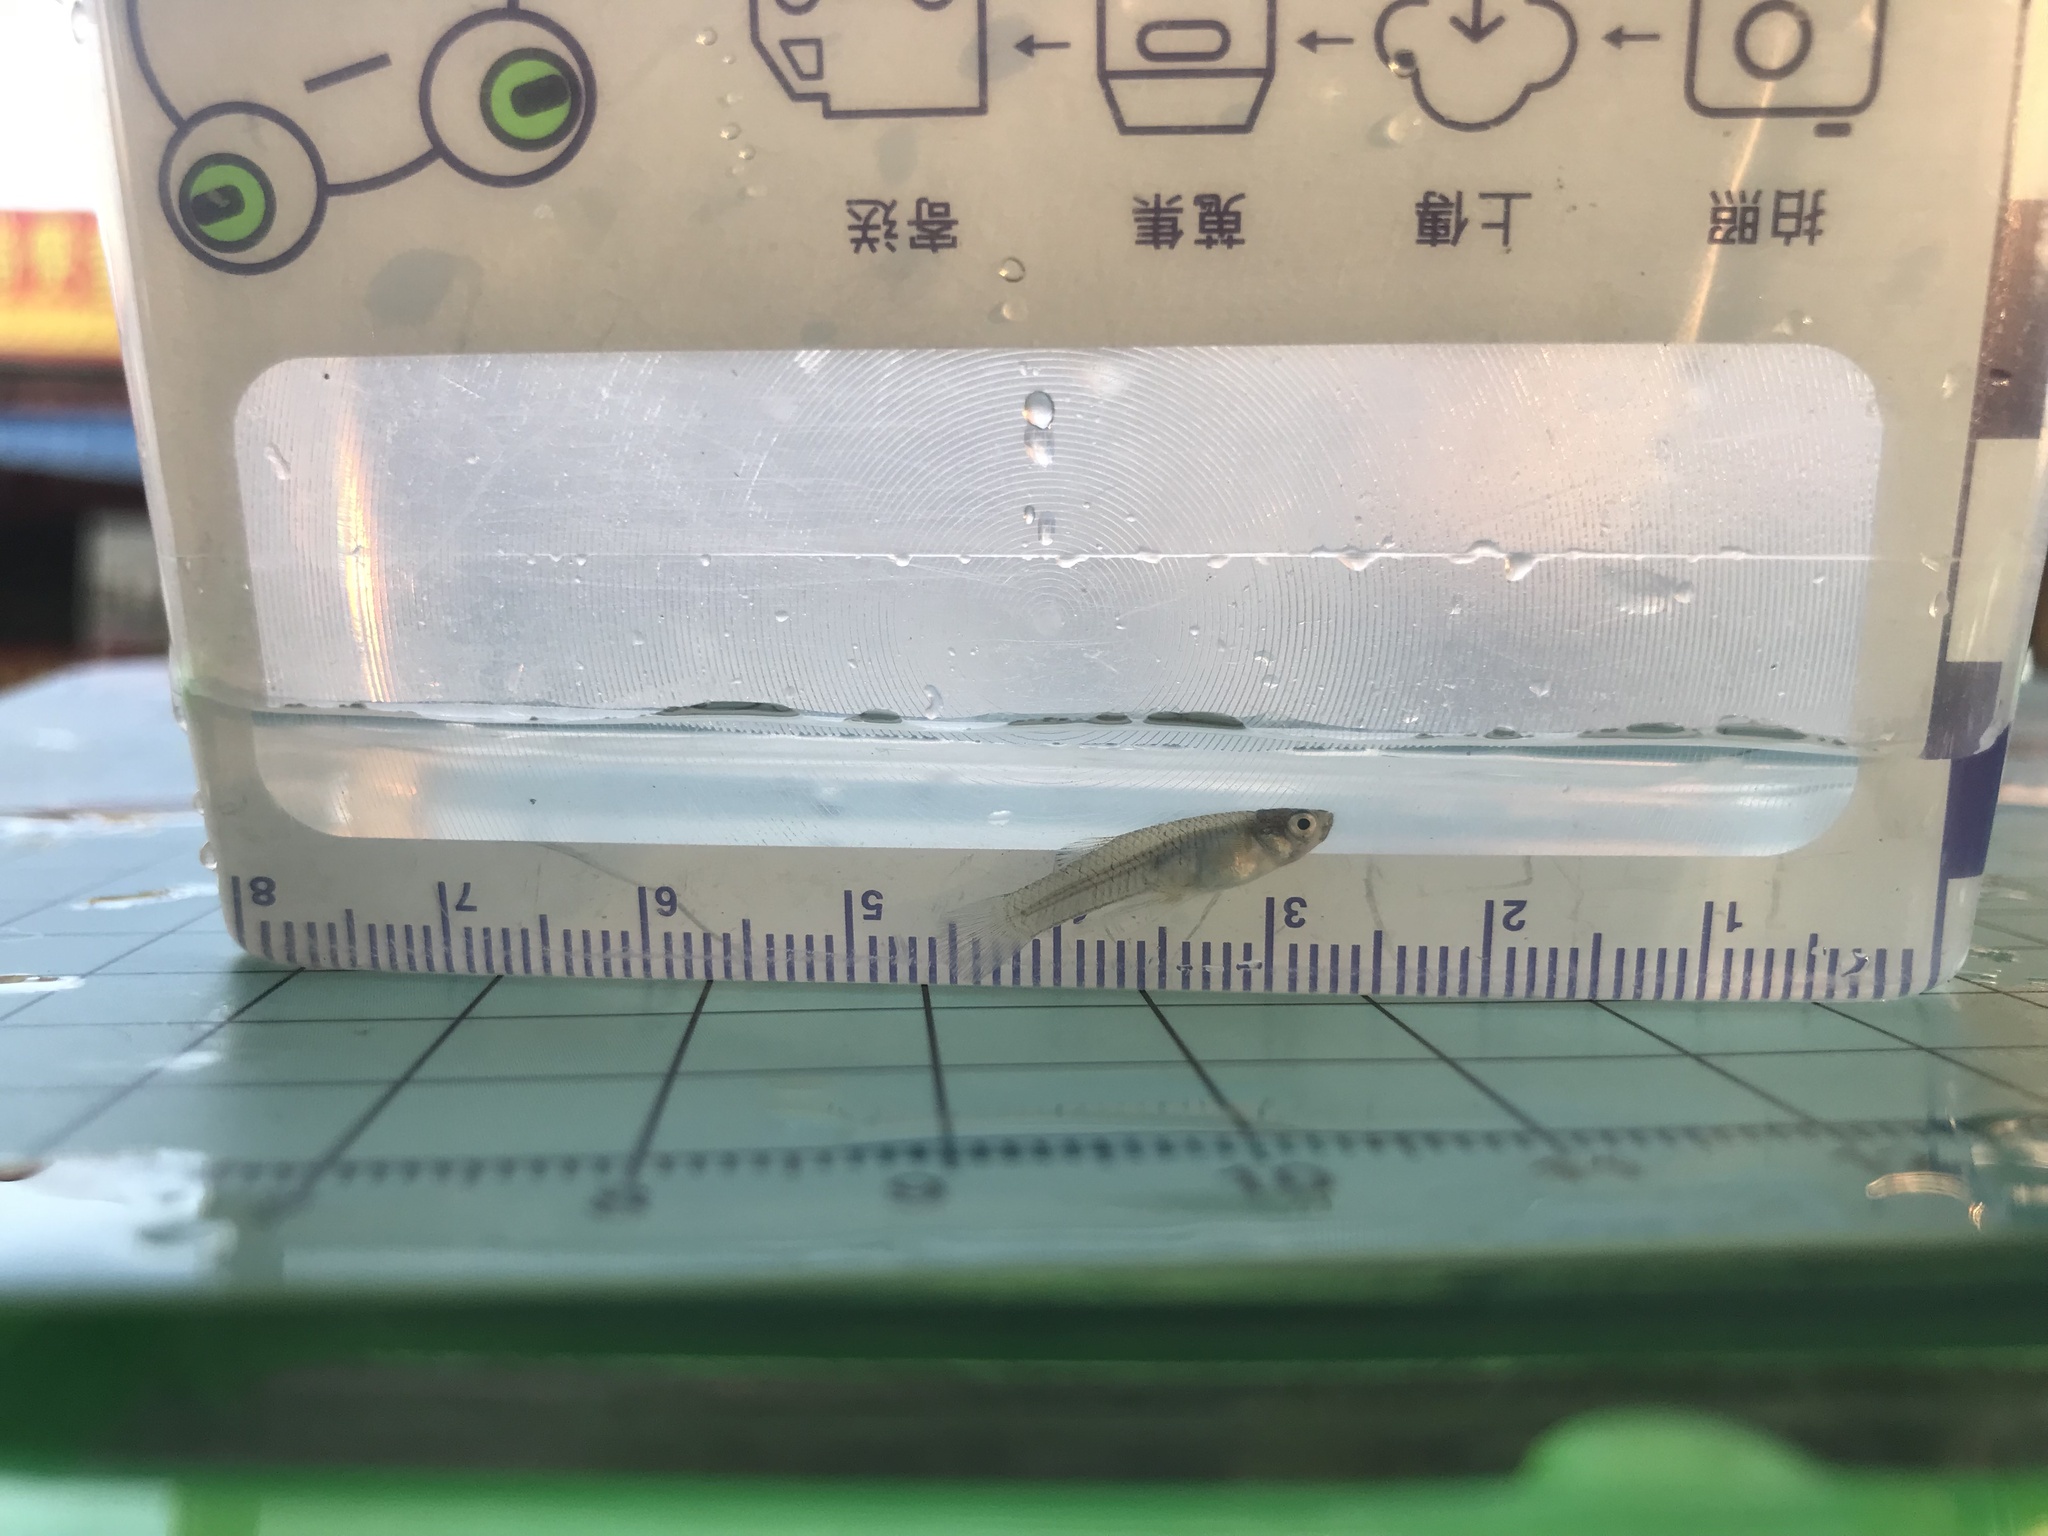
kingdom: Animalia
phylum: Chordata
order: Cyprinodontiformes
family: Poeciliidae
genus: Gambusia
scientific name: Gambusia affinis
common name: Mosquitofish
